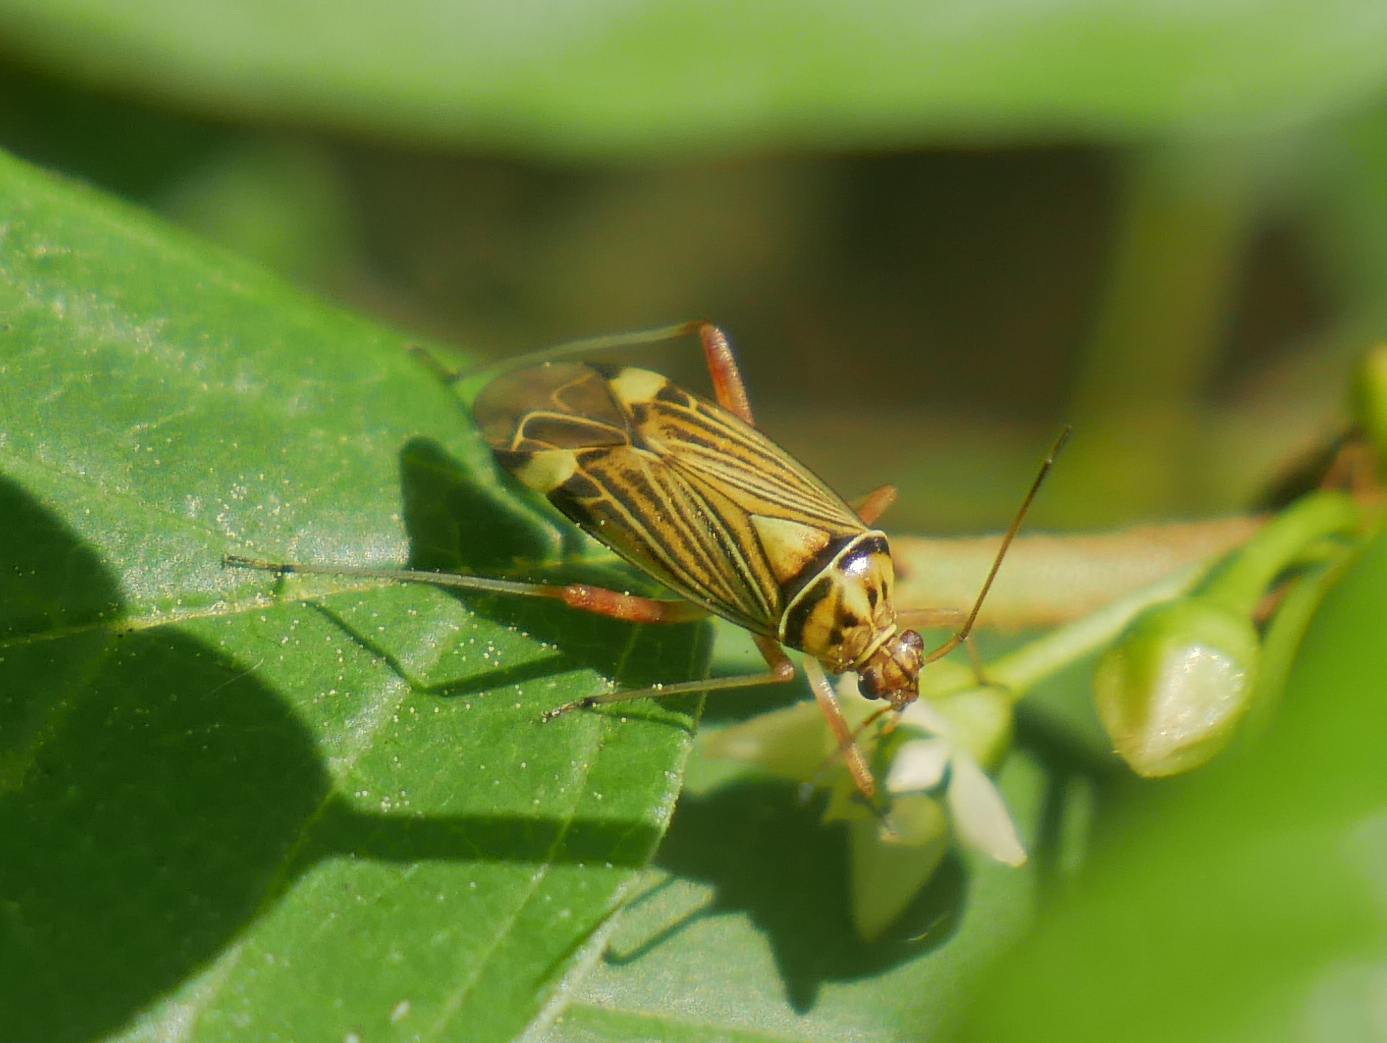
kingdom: Animalia
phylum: Arthropoda
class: Insecta
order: Hemiptera
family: Miridae
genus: Rhabdomiris
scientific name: Rhabdomiris striatellus
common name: Plant bug
